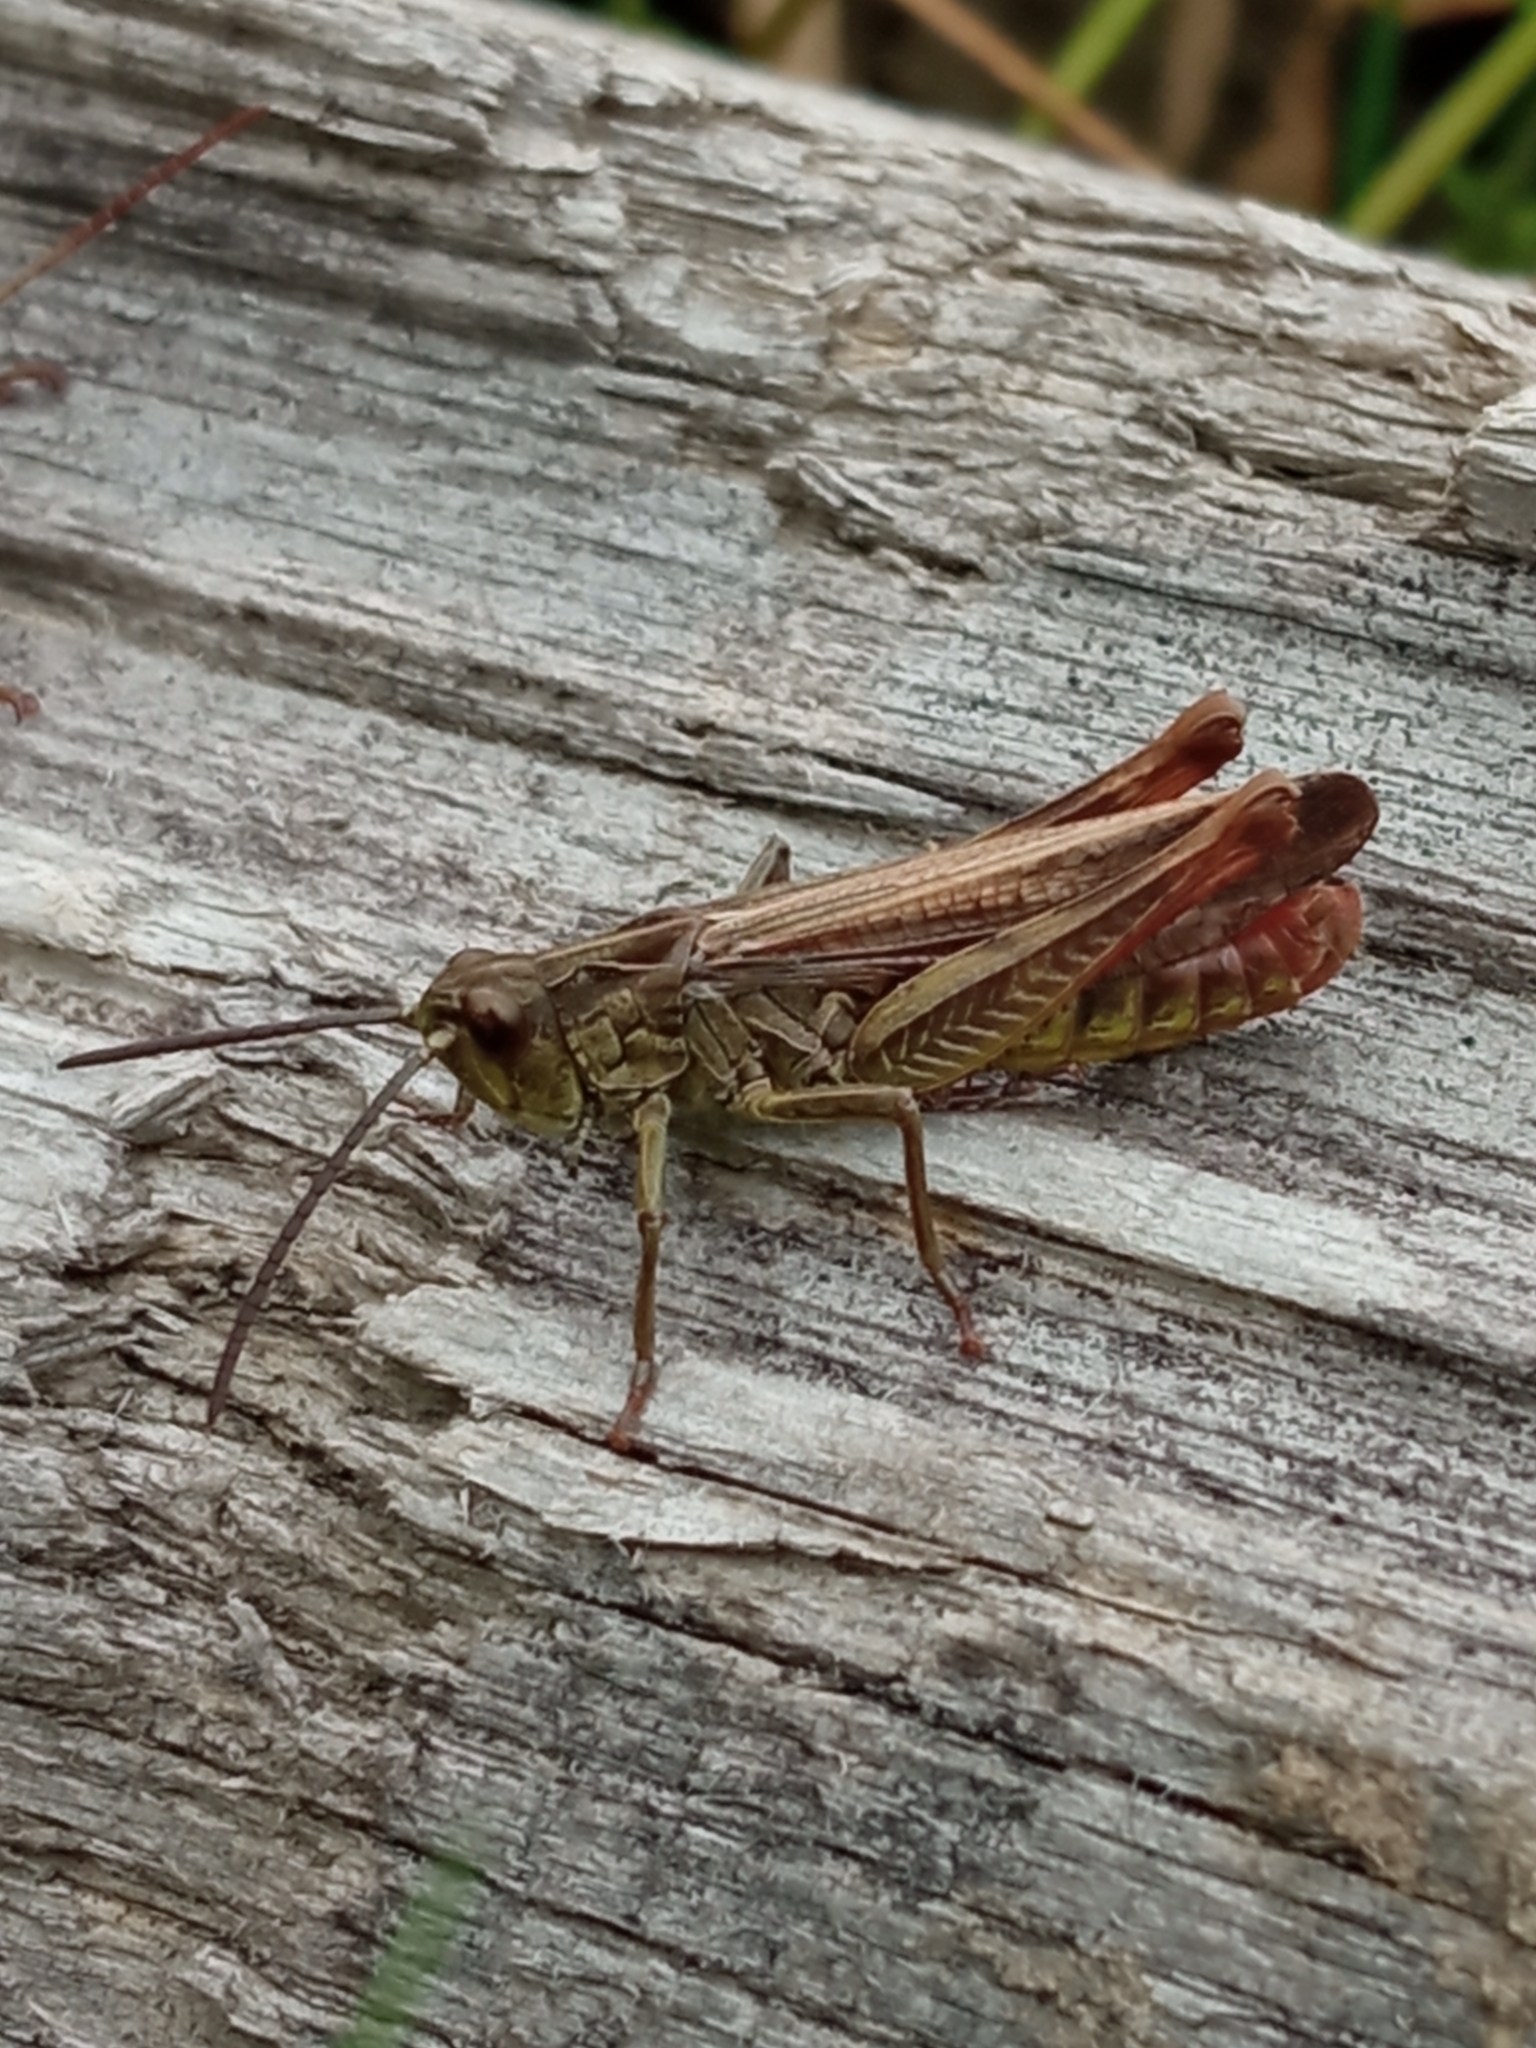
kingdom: Animalia
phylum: Arthropoda
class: Insecta
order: Orthoptera
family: Acrididae
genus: Chorthippus
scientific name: Chorthippus biguttulus
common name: Bow-winged grasshopper
